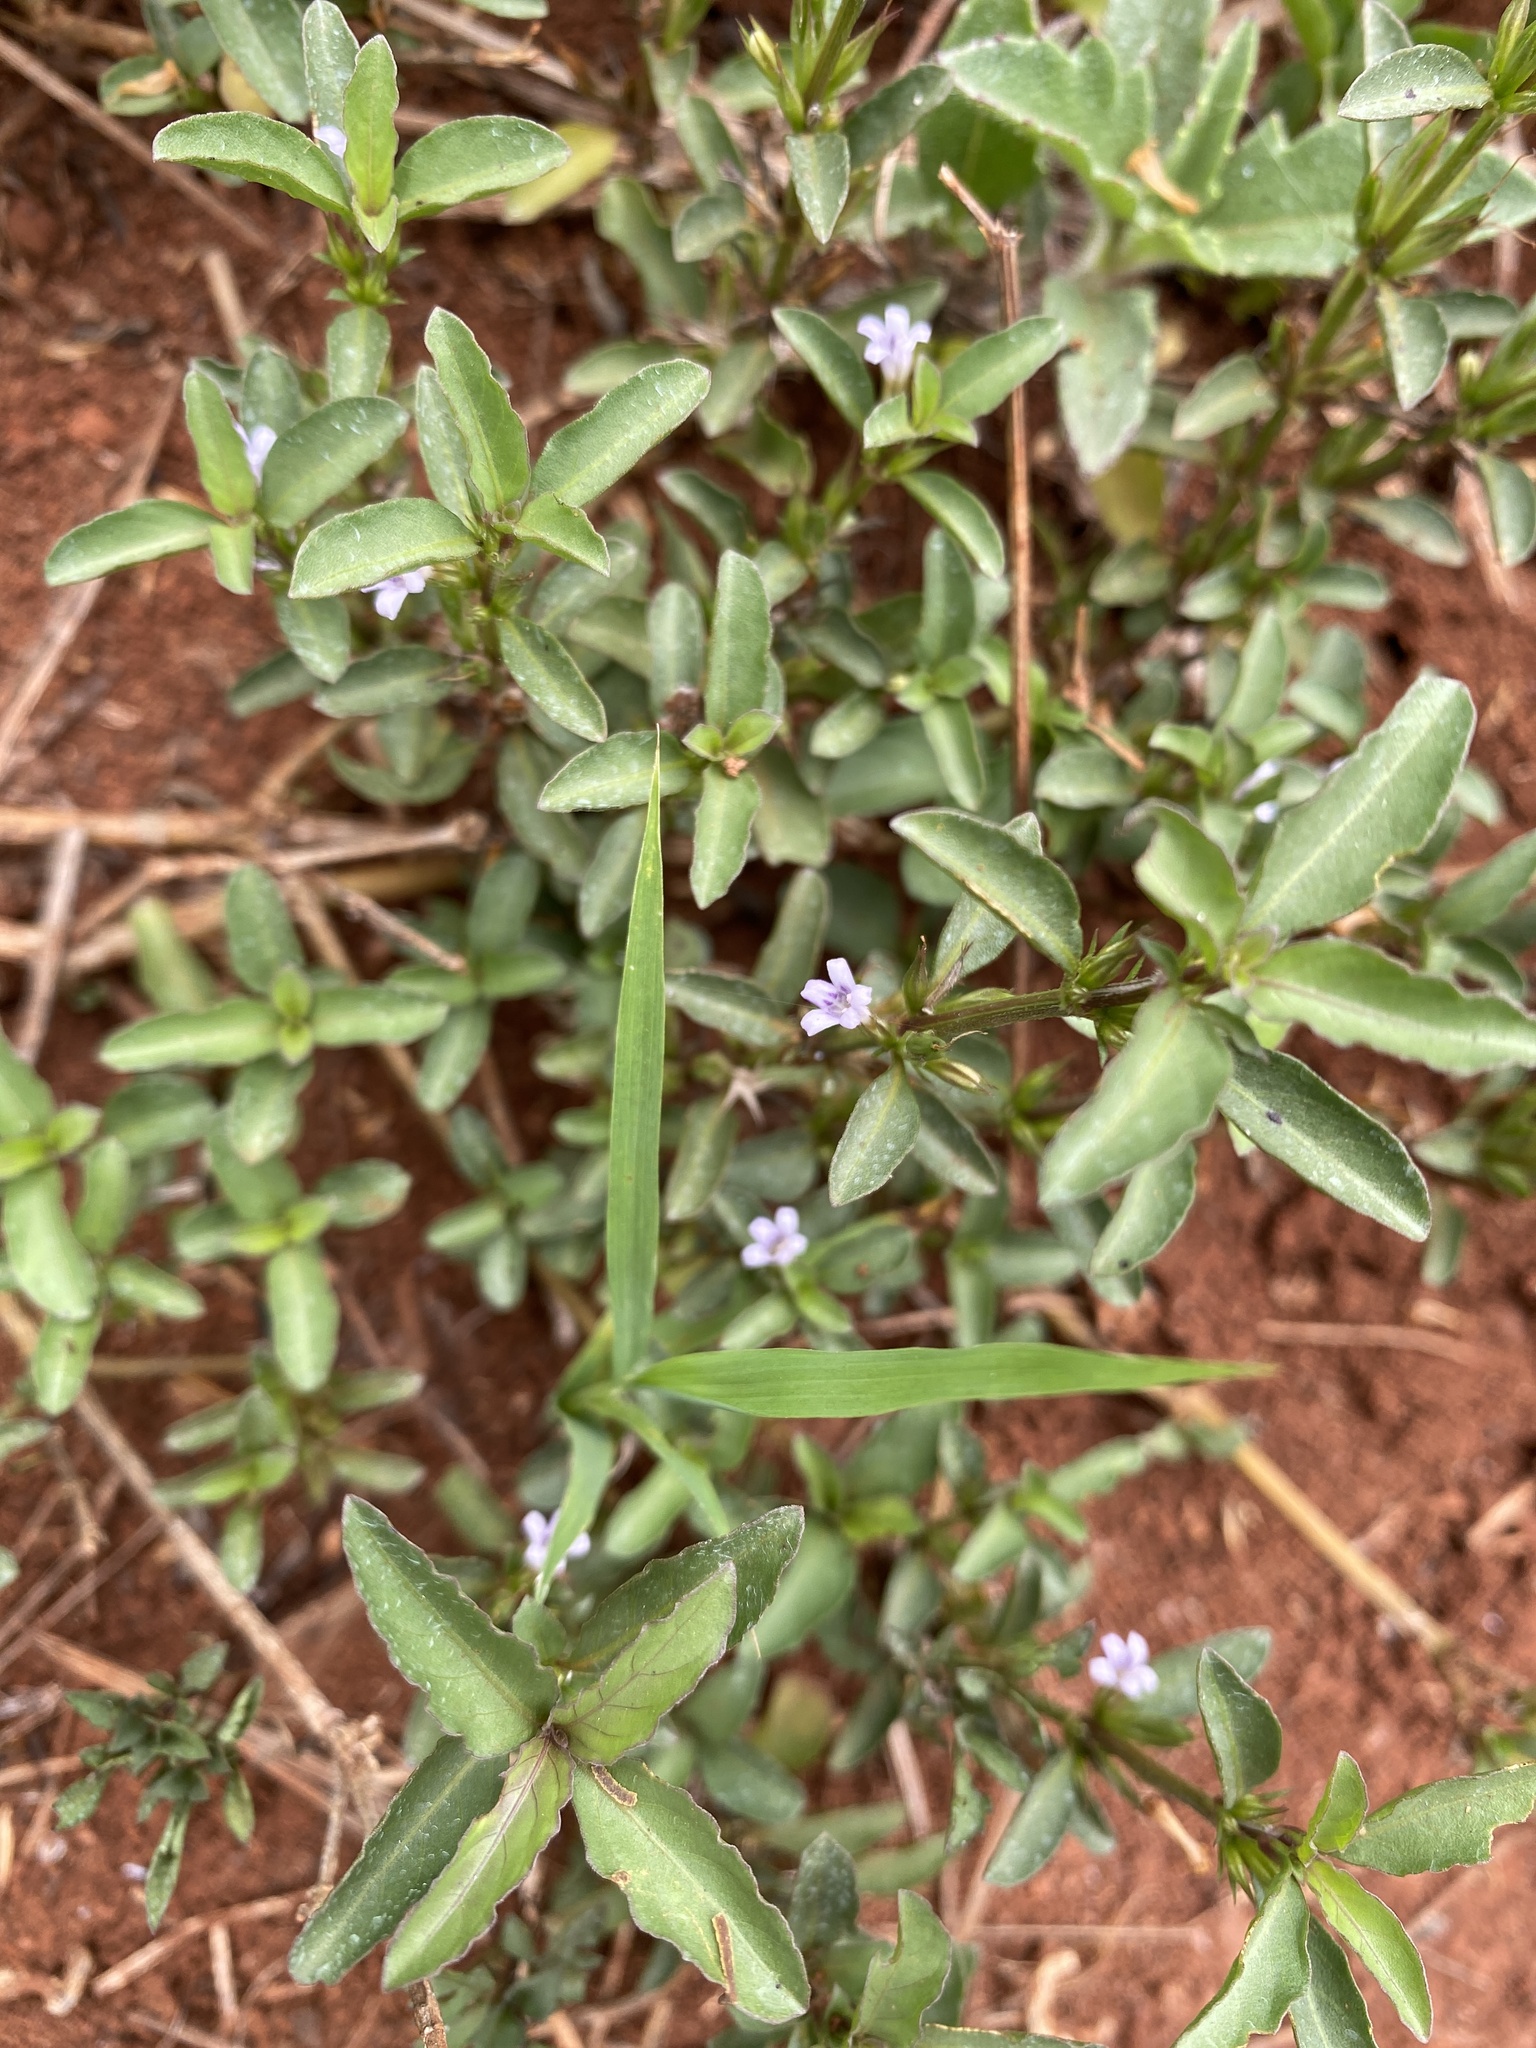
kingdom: Plantae
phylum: Tracheophyta
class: Magnoliopsida
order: Lamiales
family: Acanthaceae
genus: Hygrophila
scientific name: Hygrophila erecta
